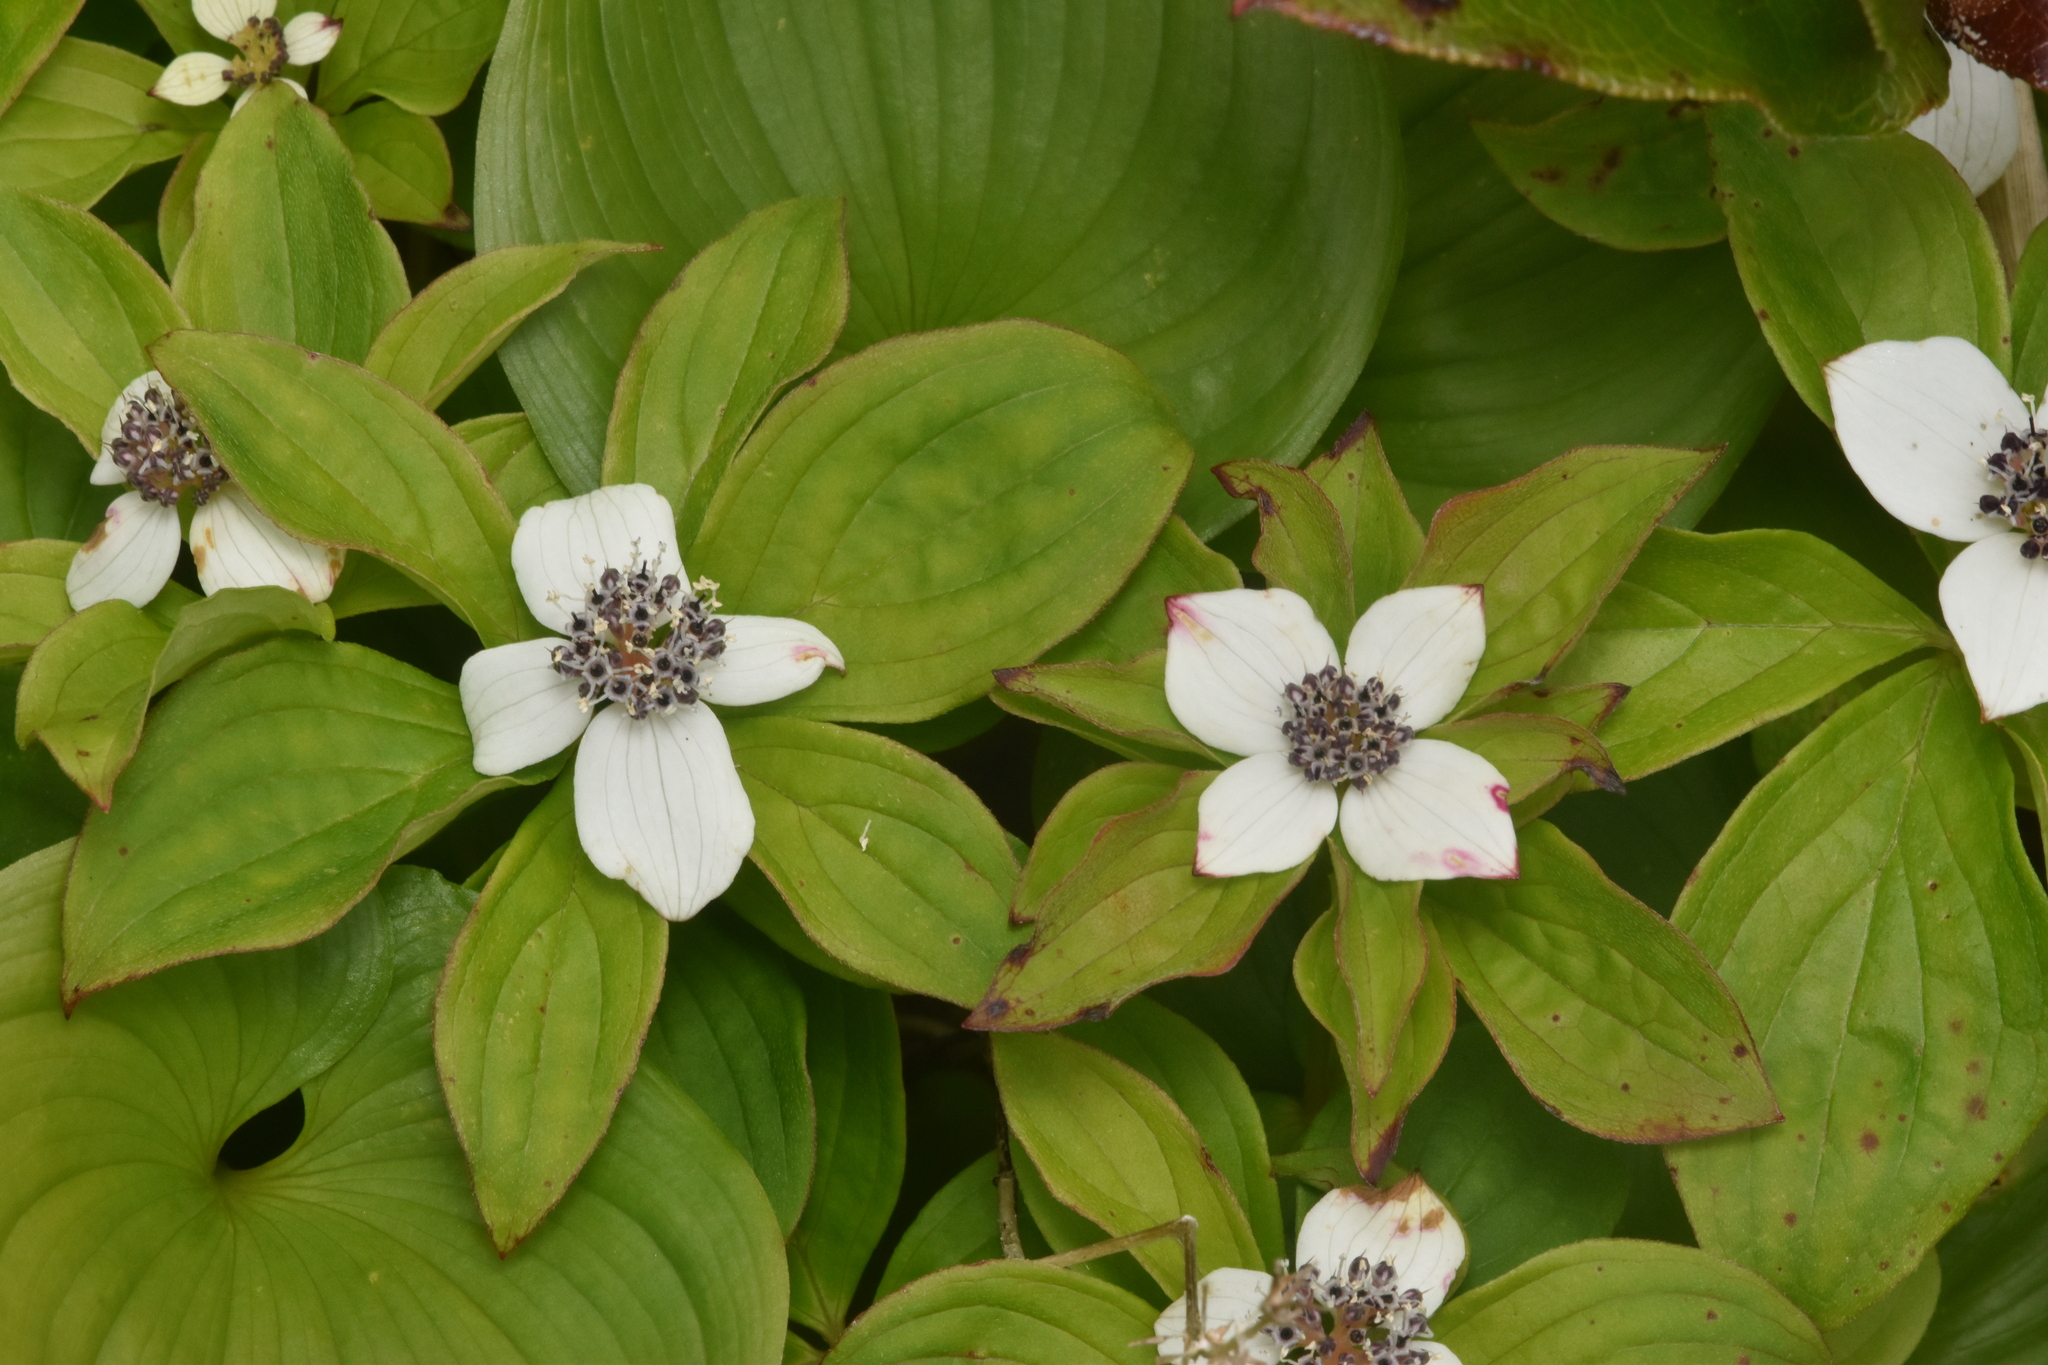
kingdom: Plantae
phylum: Tracheophyta
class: Magnoliopsida
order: Cornales
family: Cornaceae
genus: Cornus
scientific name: Cornus unalaschkensis
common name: Alaska bunchberry
